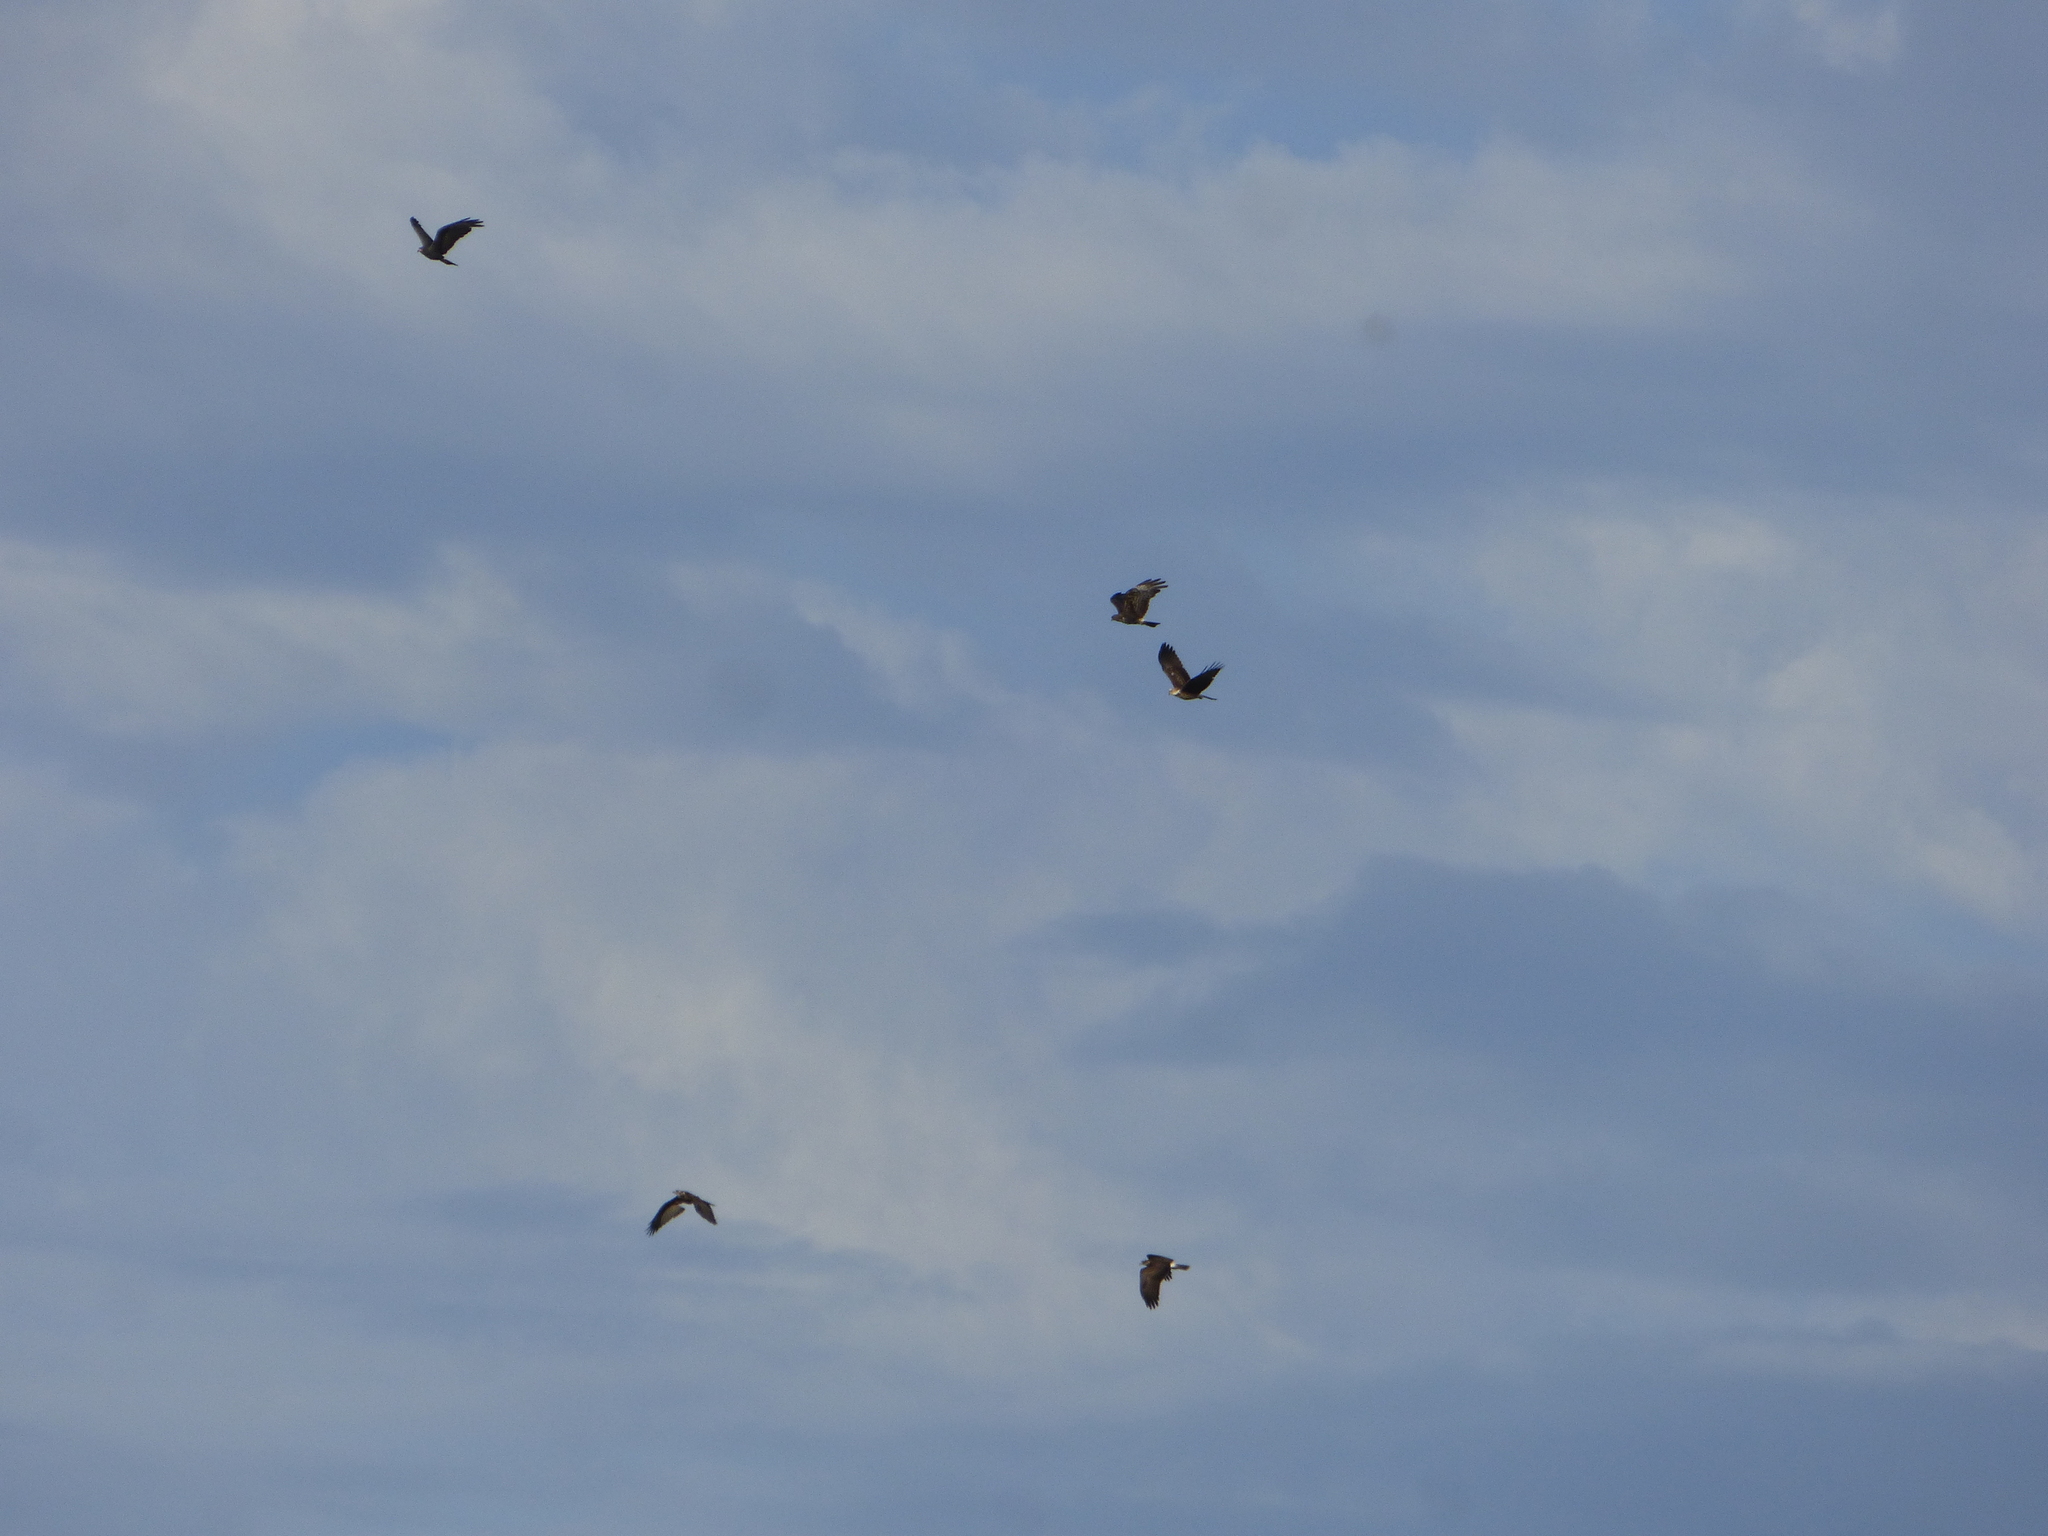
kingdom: Animalia
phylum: Chordata
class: Aves
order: Accipitriformes
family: Accipitridae
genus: Rostrhamus
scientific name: Rostrhamus sociabilis
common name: Snail kite
